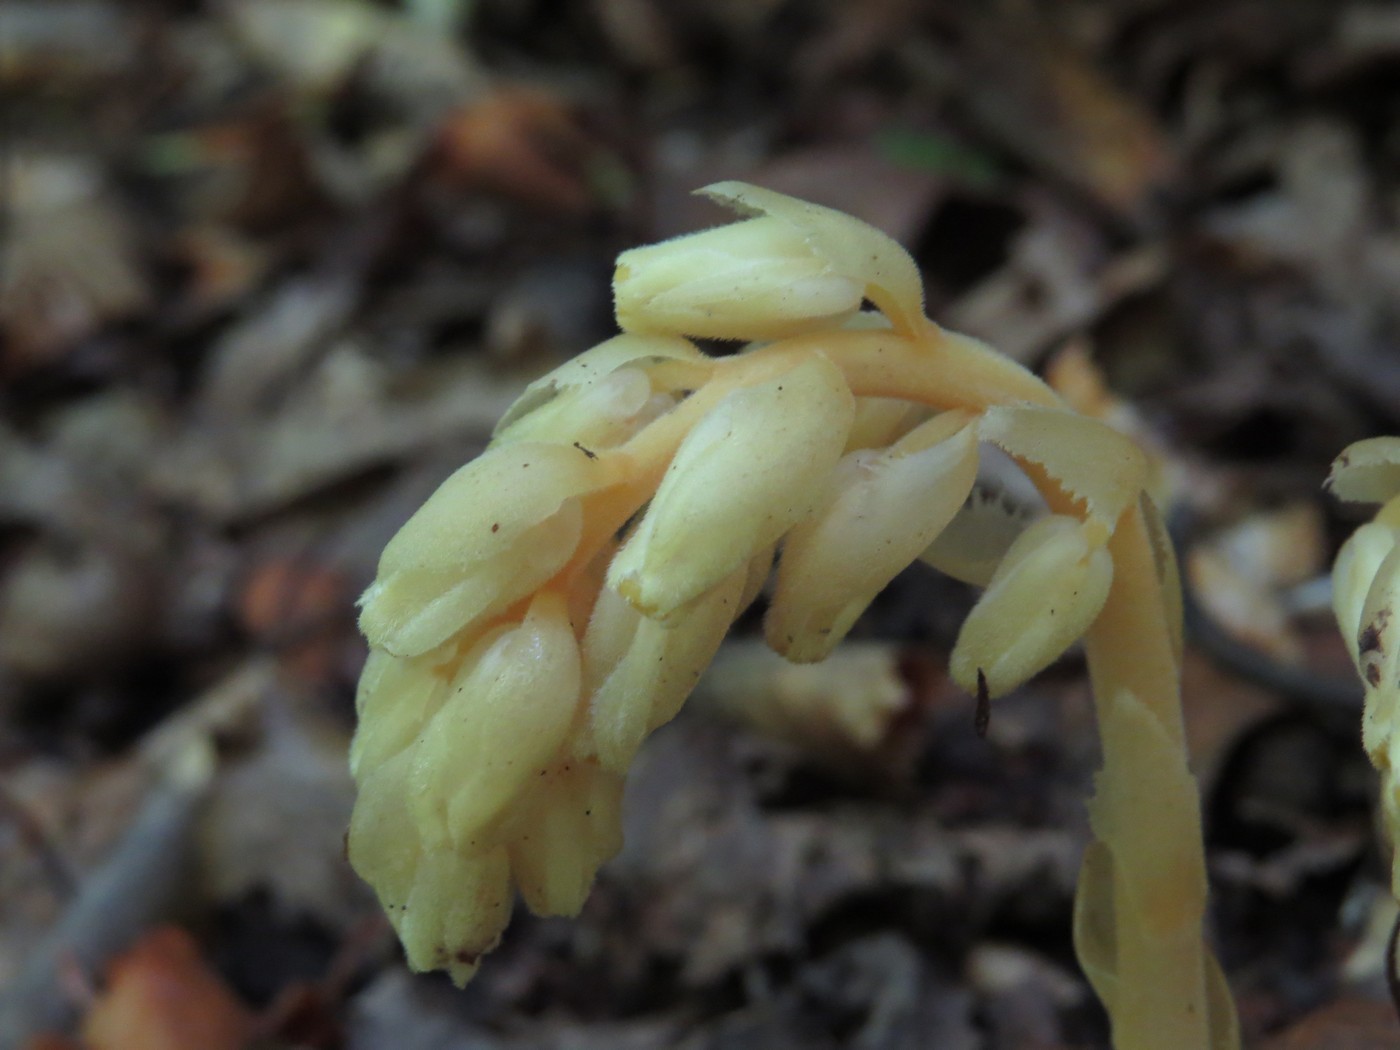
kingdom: Plantae
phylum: Tracheophyta
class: Magnoliopsida
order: Ericales
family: Ericaceae
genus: Hypopitys
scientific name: Hypopitys monotropa
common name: Yellow bird's-nest
